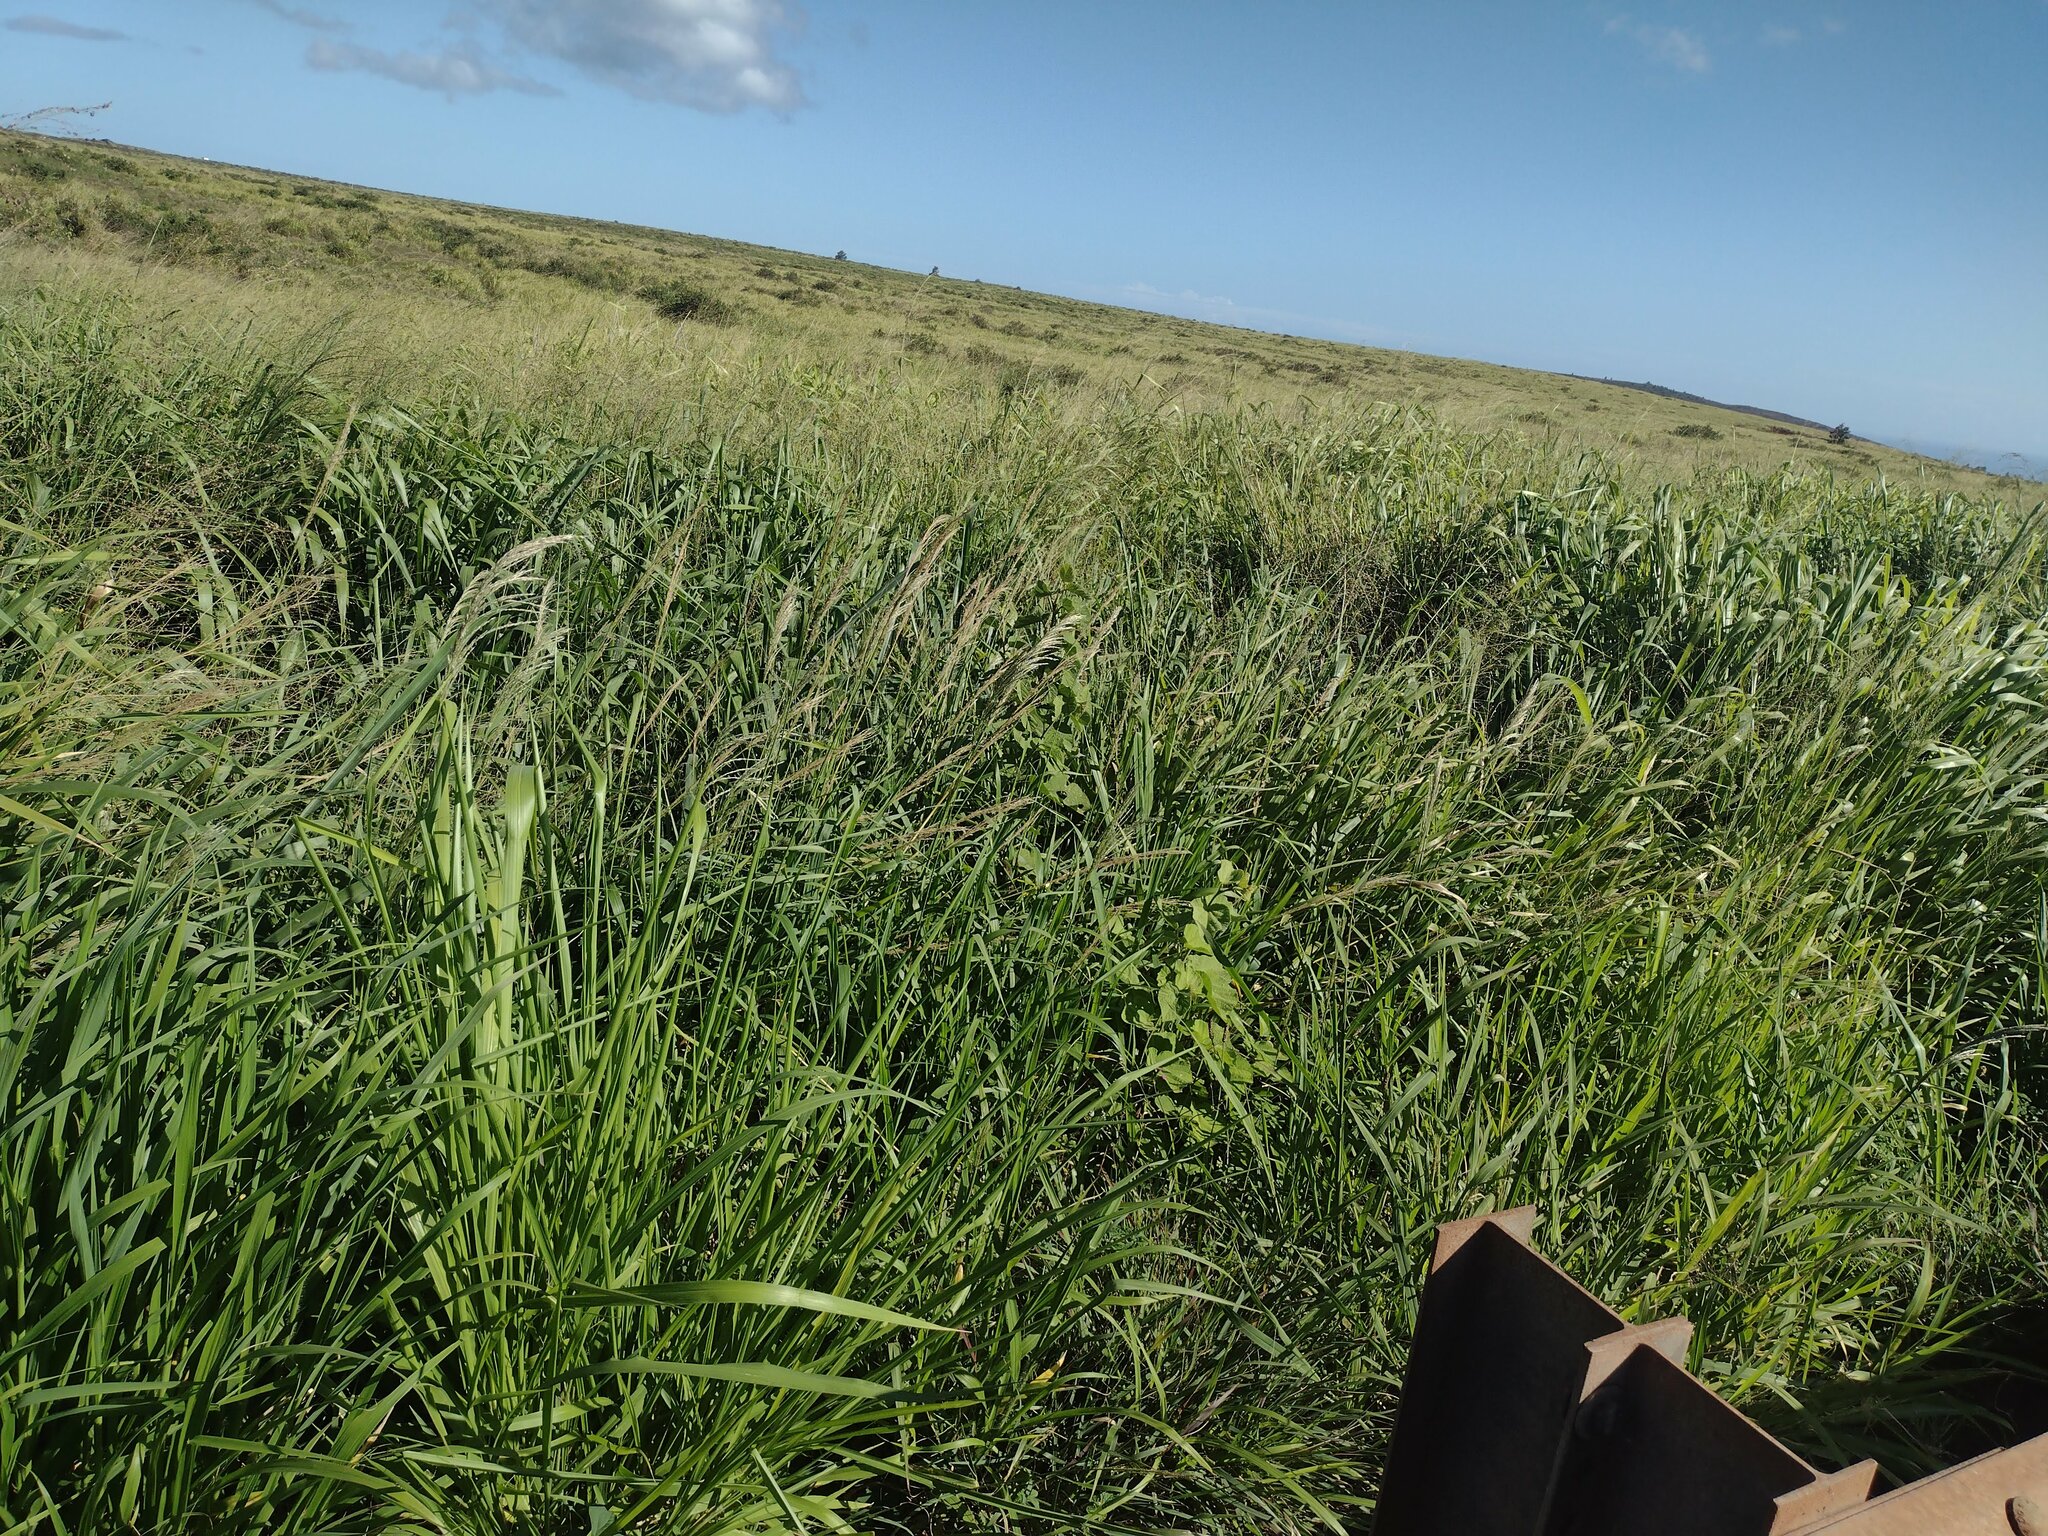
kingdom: Plantae
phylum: Tracheophyta
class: Liliopsida
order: Poales
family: Poaceae
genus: Digitaria
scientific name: Digitaria insularis
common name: Sourgrass
